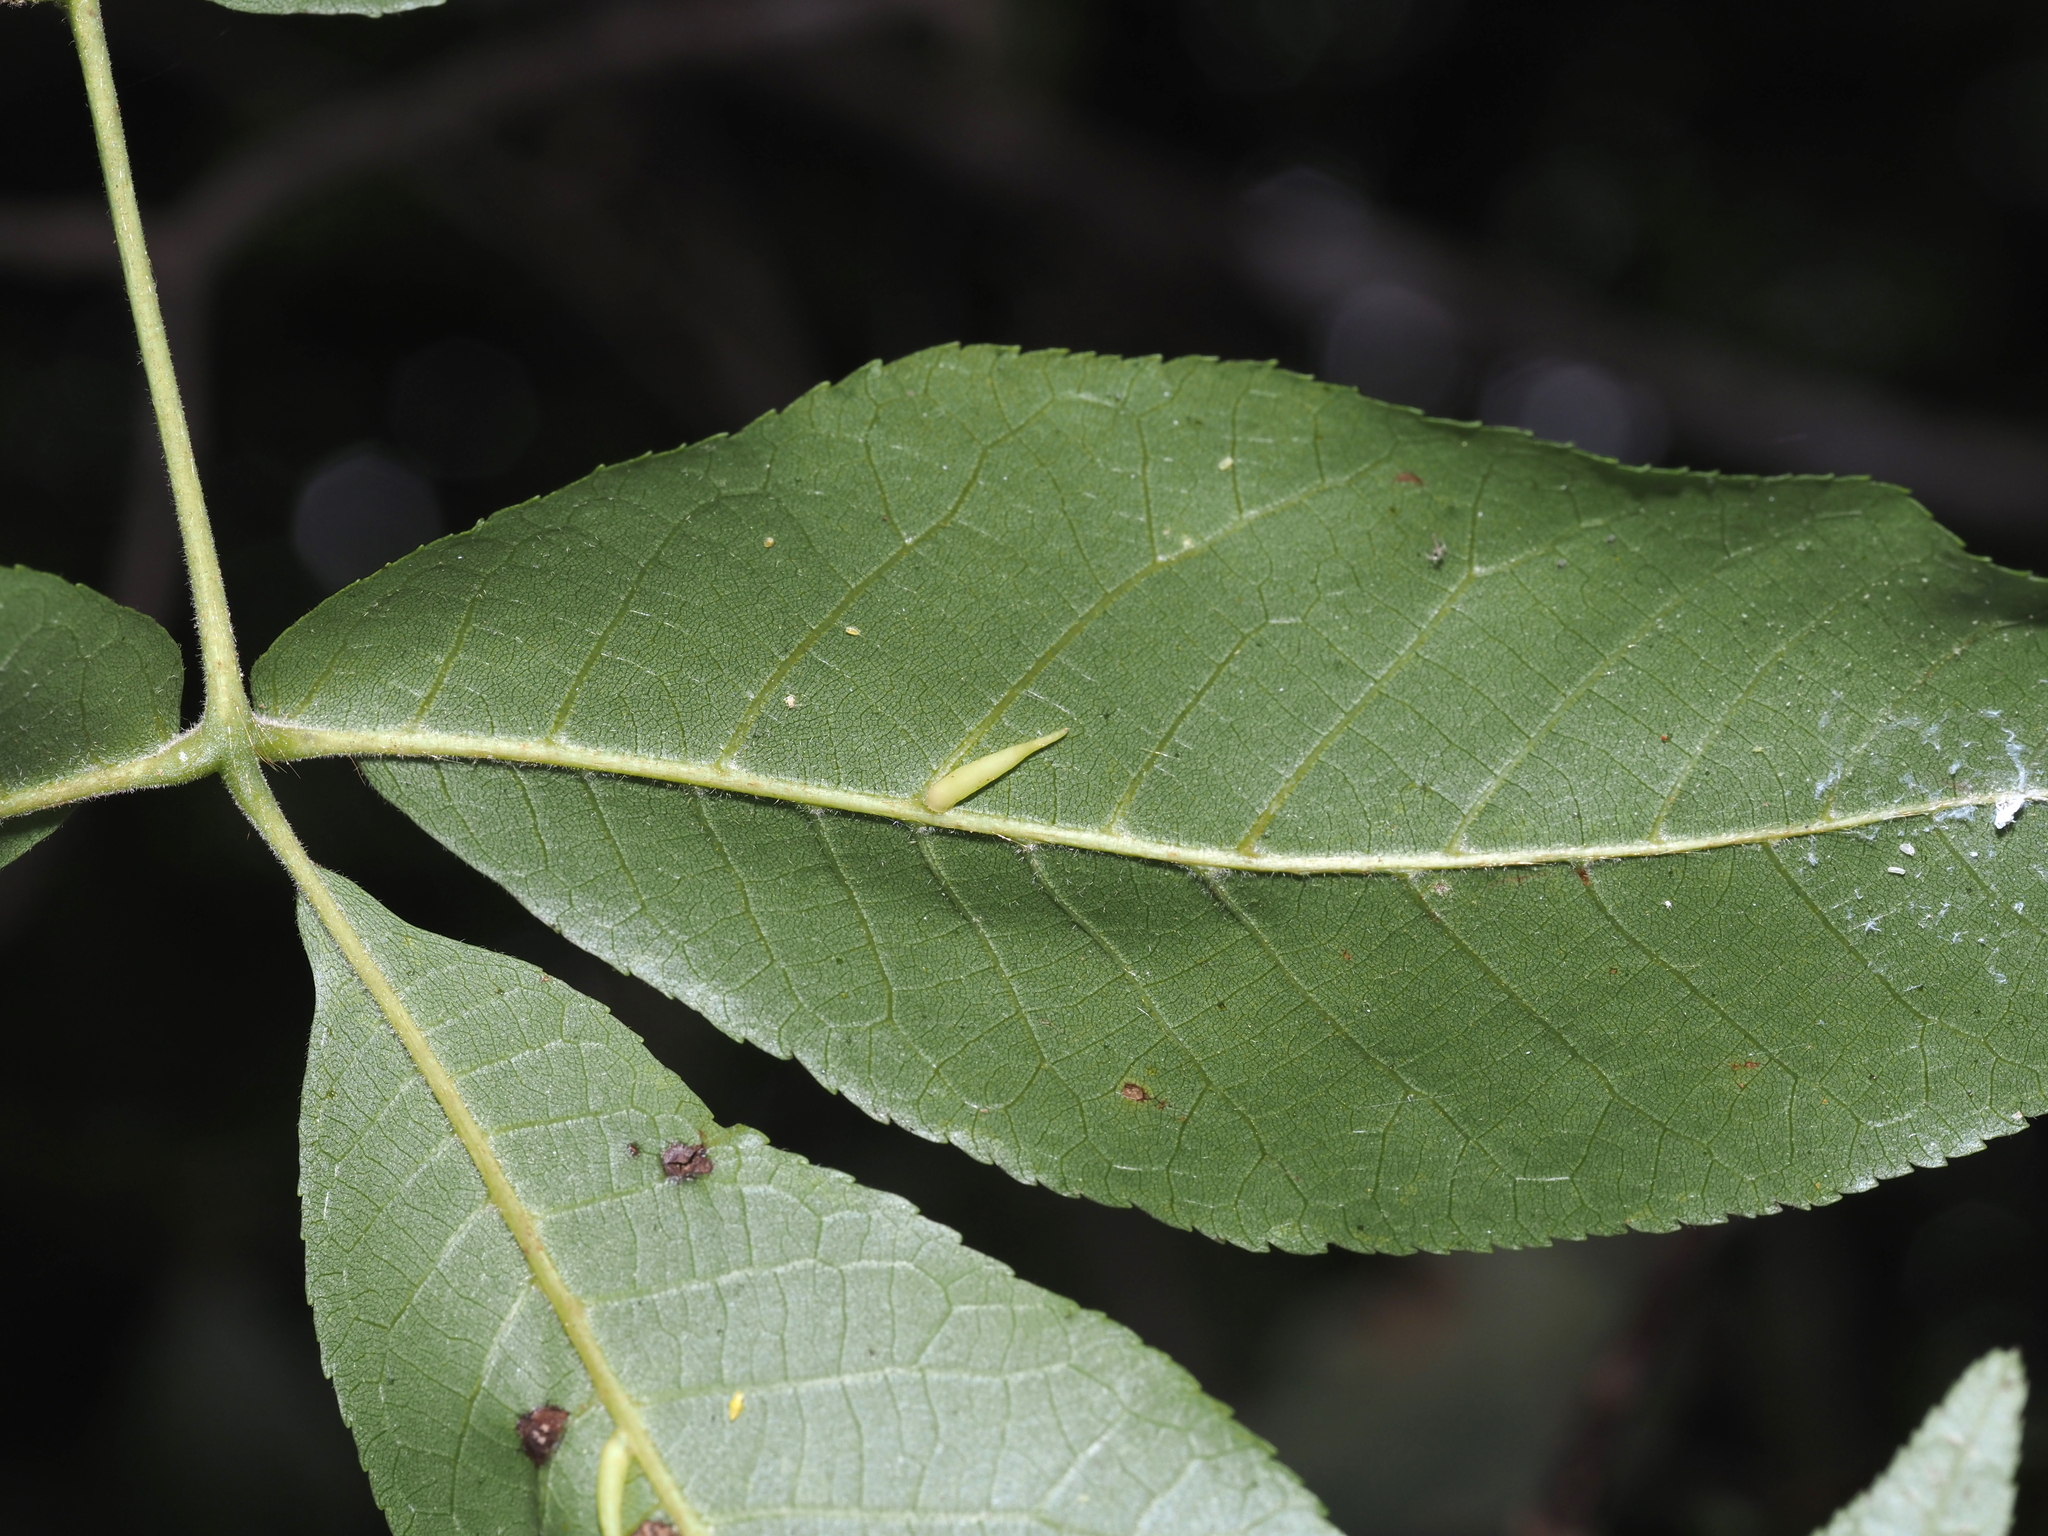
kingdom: Animalia
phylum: Arthropoda
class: Insecta
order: Diptera
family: Cecidomyiidae
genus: Caryomyia
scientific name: Caryomyia
